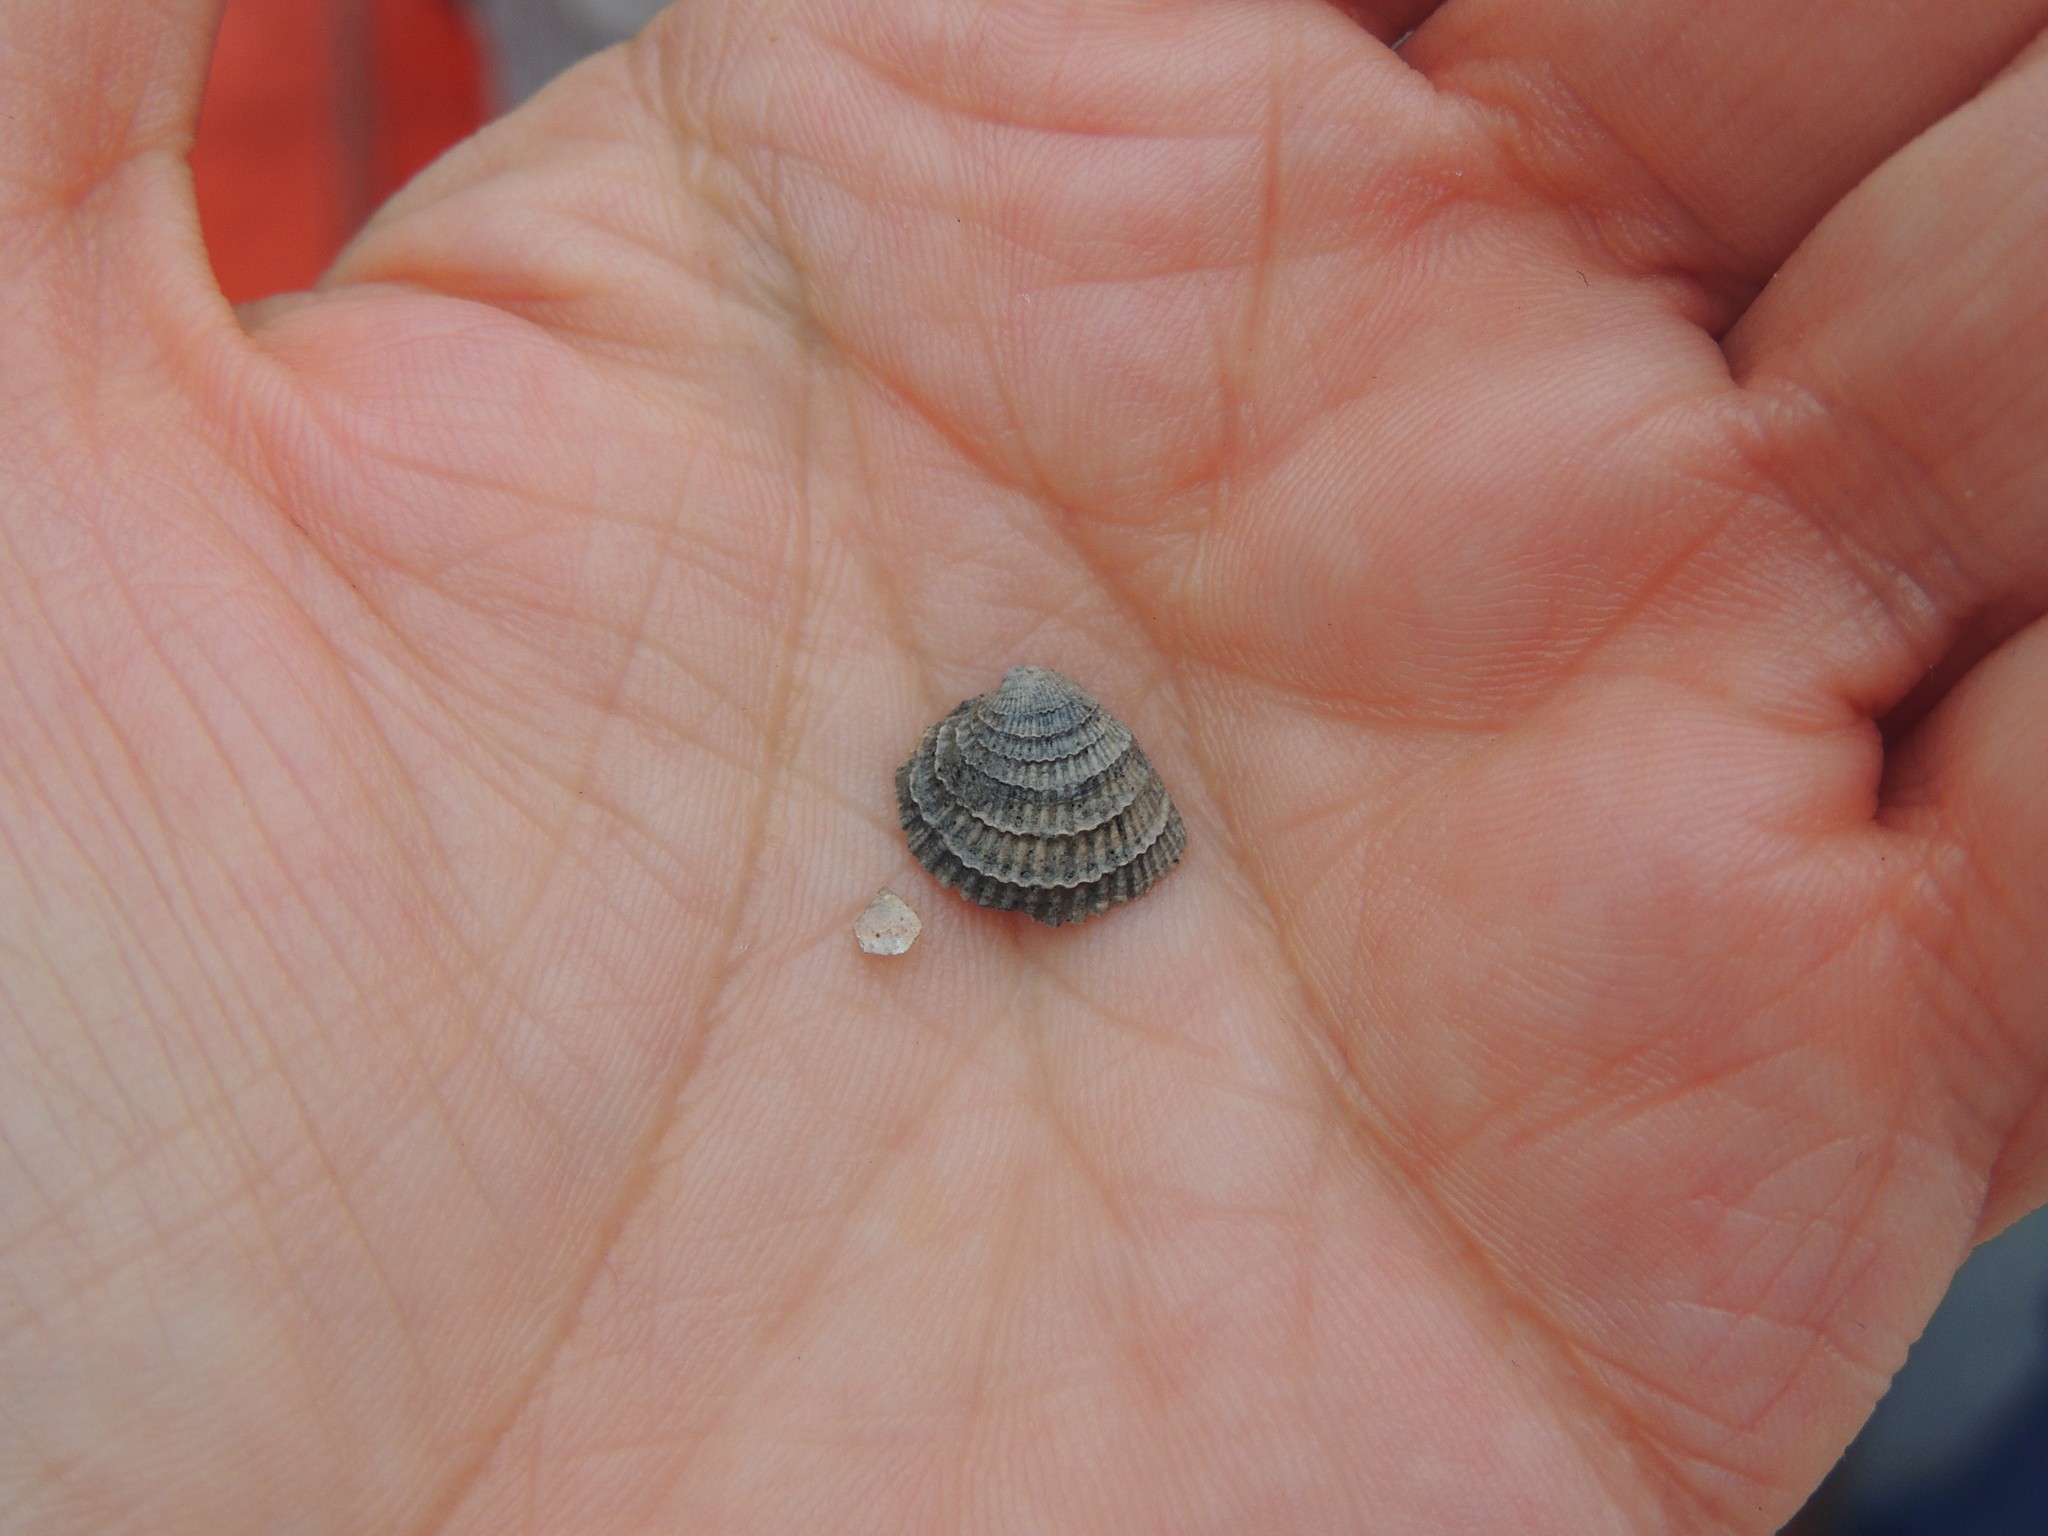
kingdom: Animalia
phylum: Mollusca
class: Bivalvia
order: Venerida
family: Veneridae
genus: Chione
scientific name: Chione elevata
